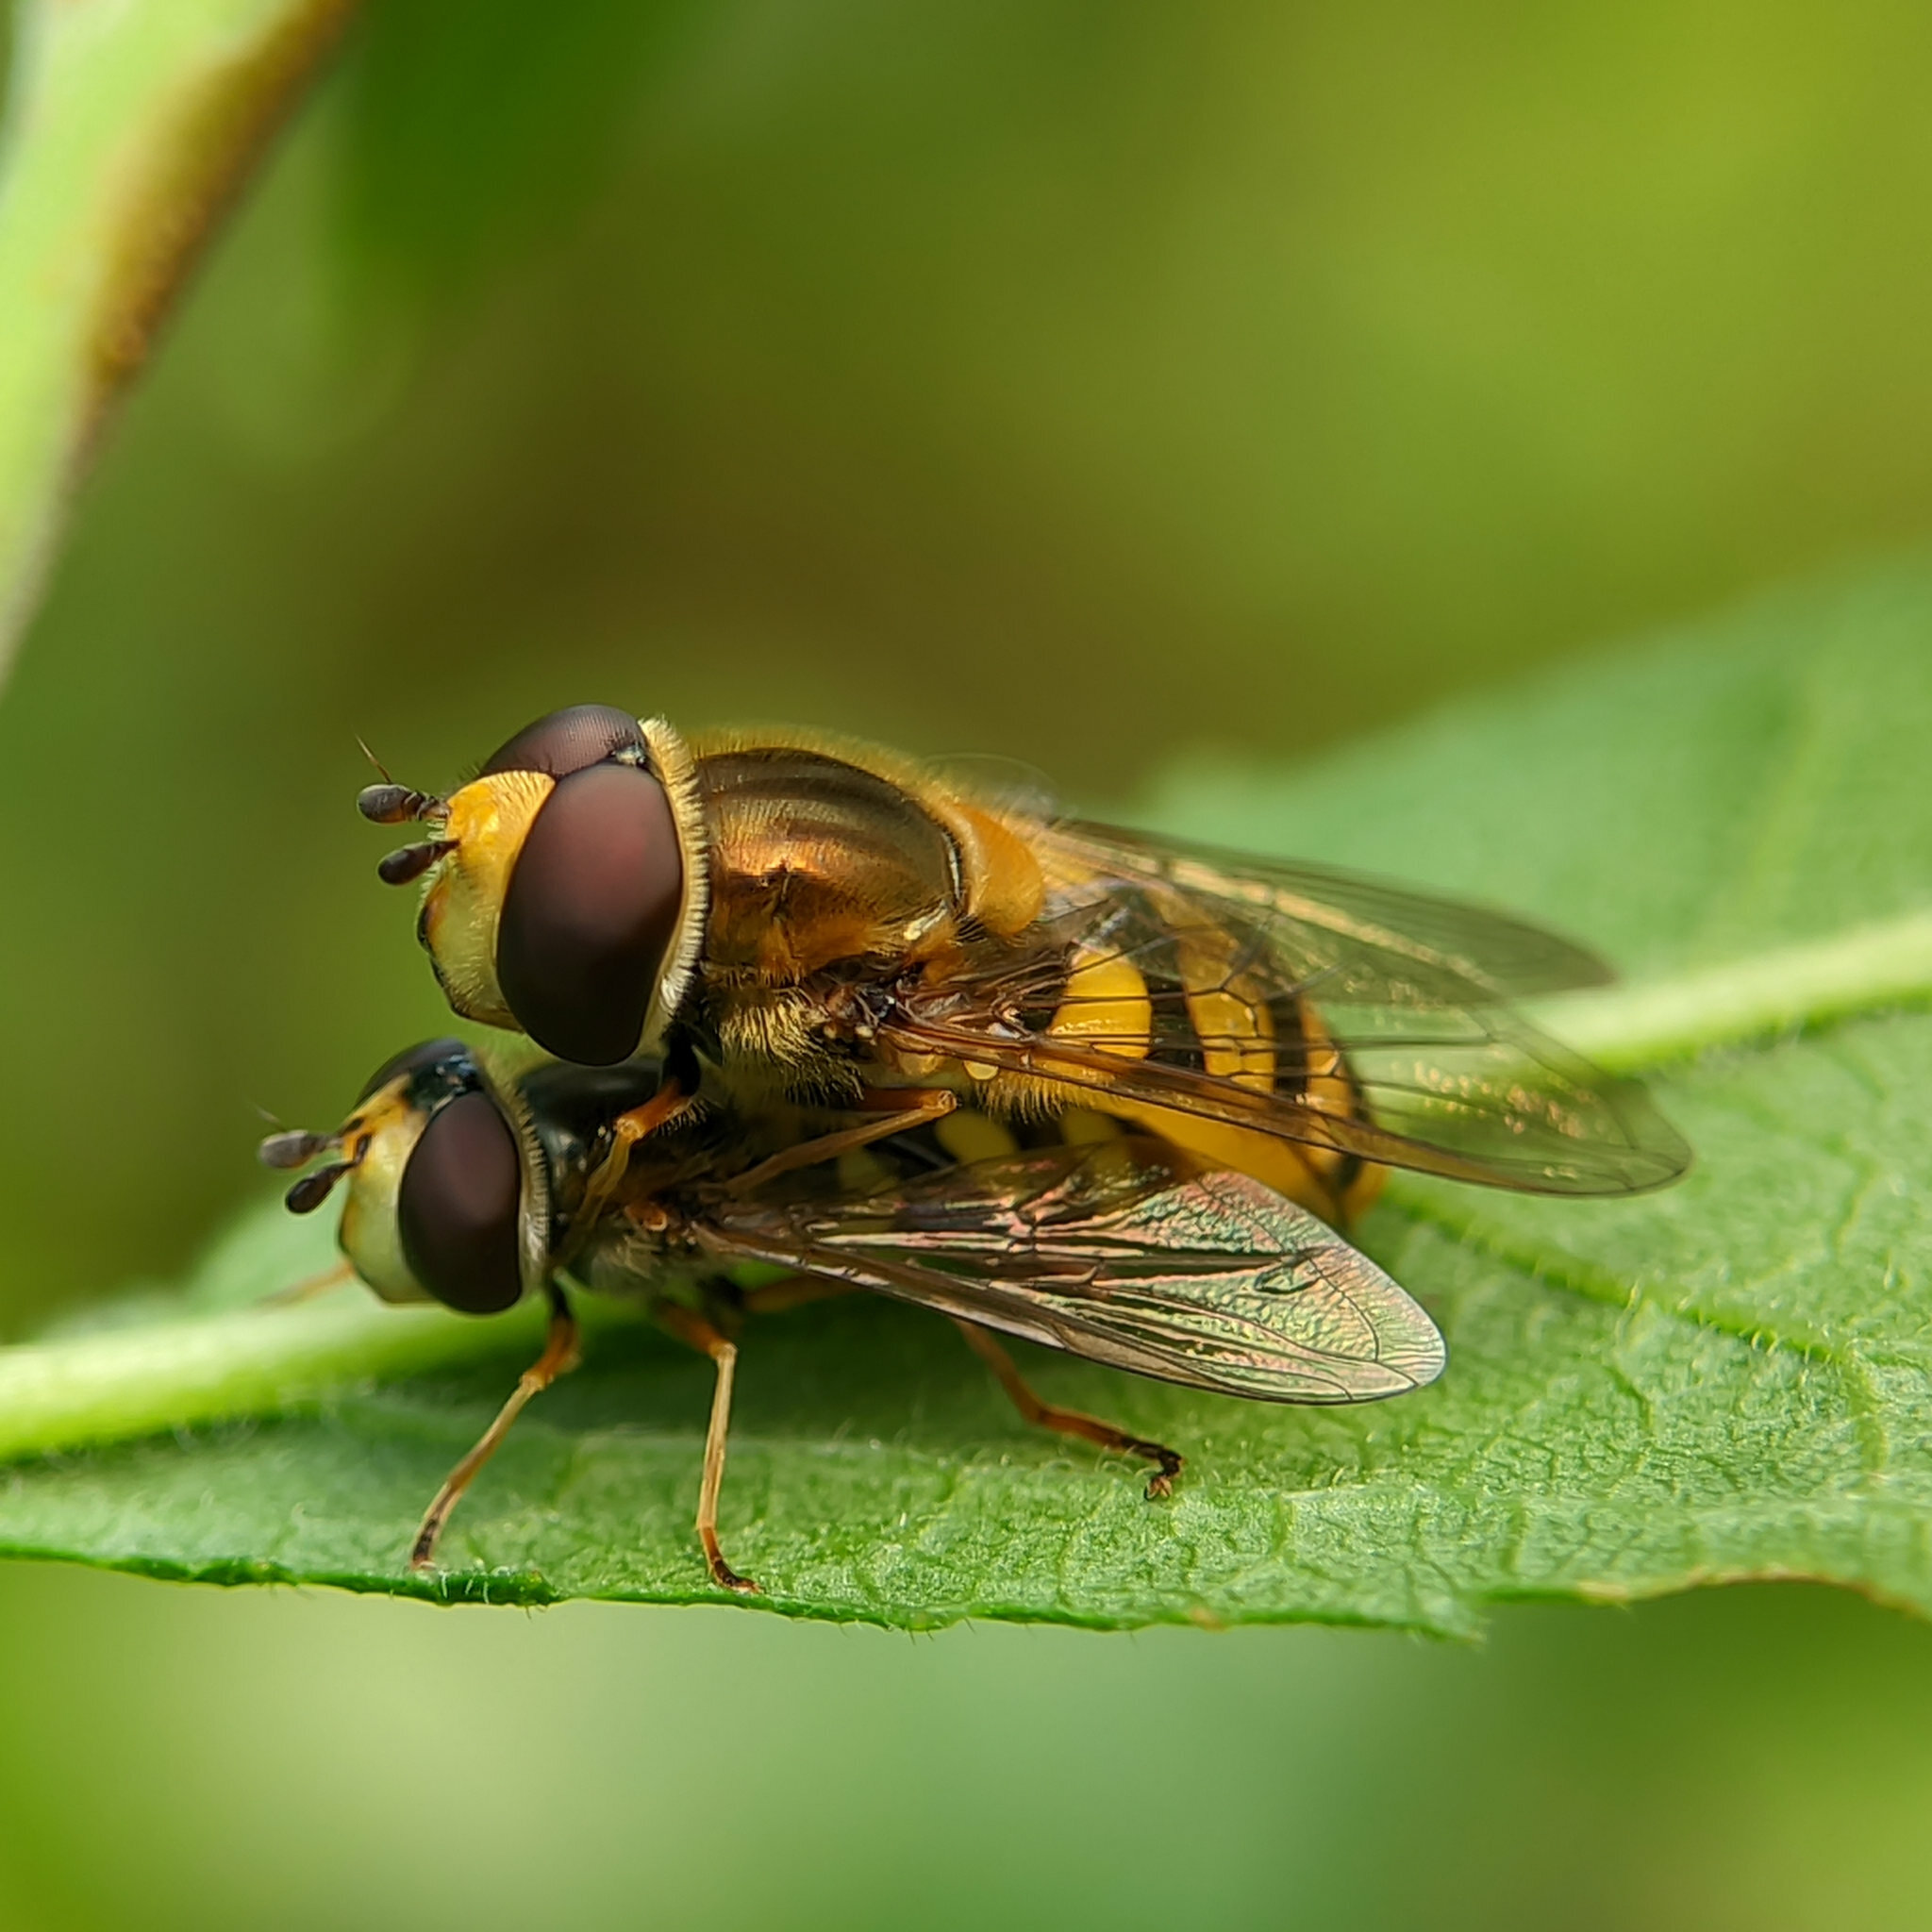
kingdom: Animalia
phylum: Arthropoda
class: Insecta
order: Diptera
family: Syrphidae
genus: Eupeodes
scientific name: Eupeodes corollae
